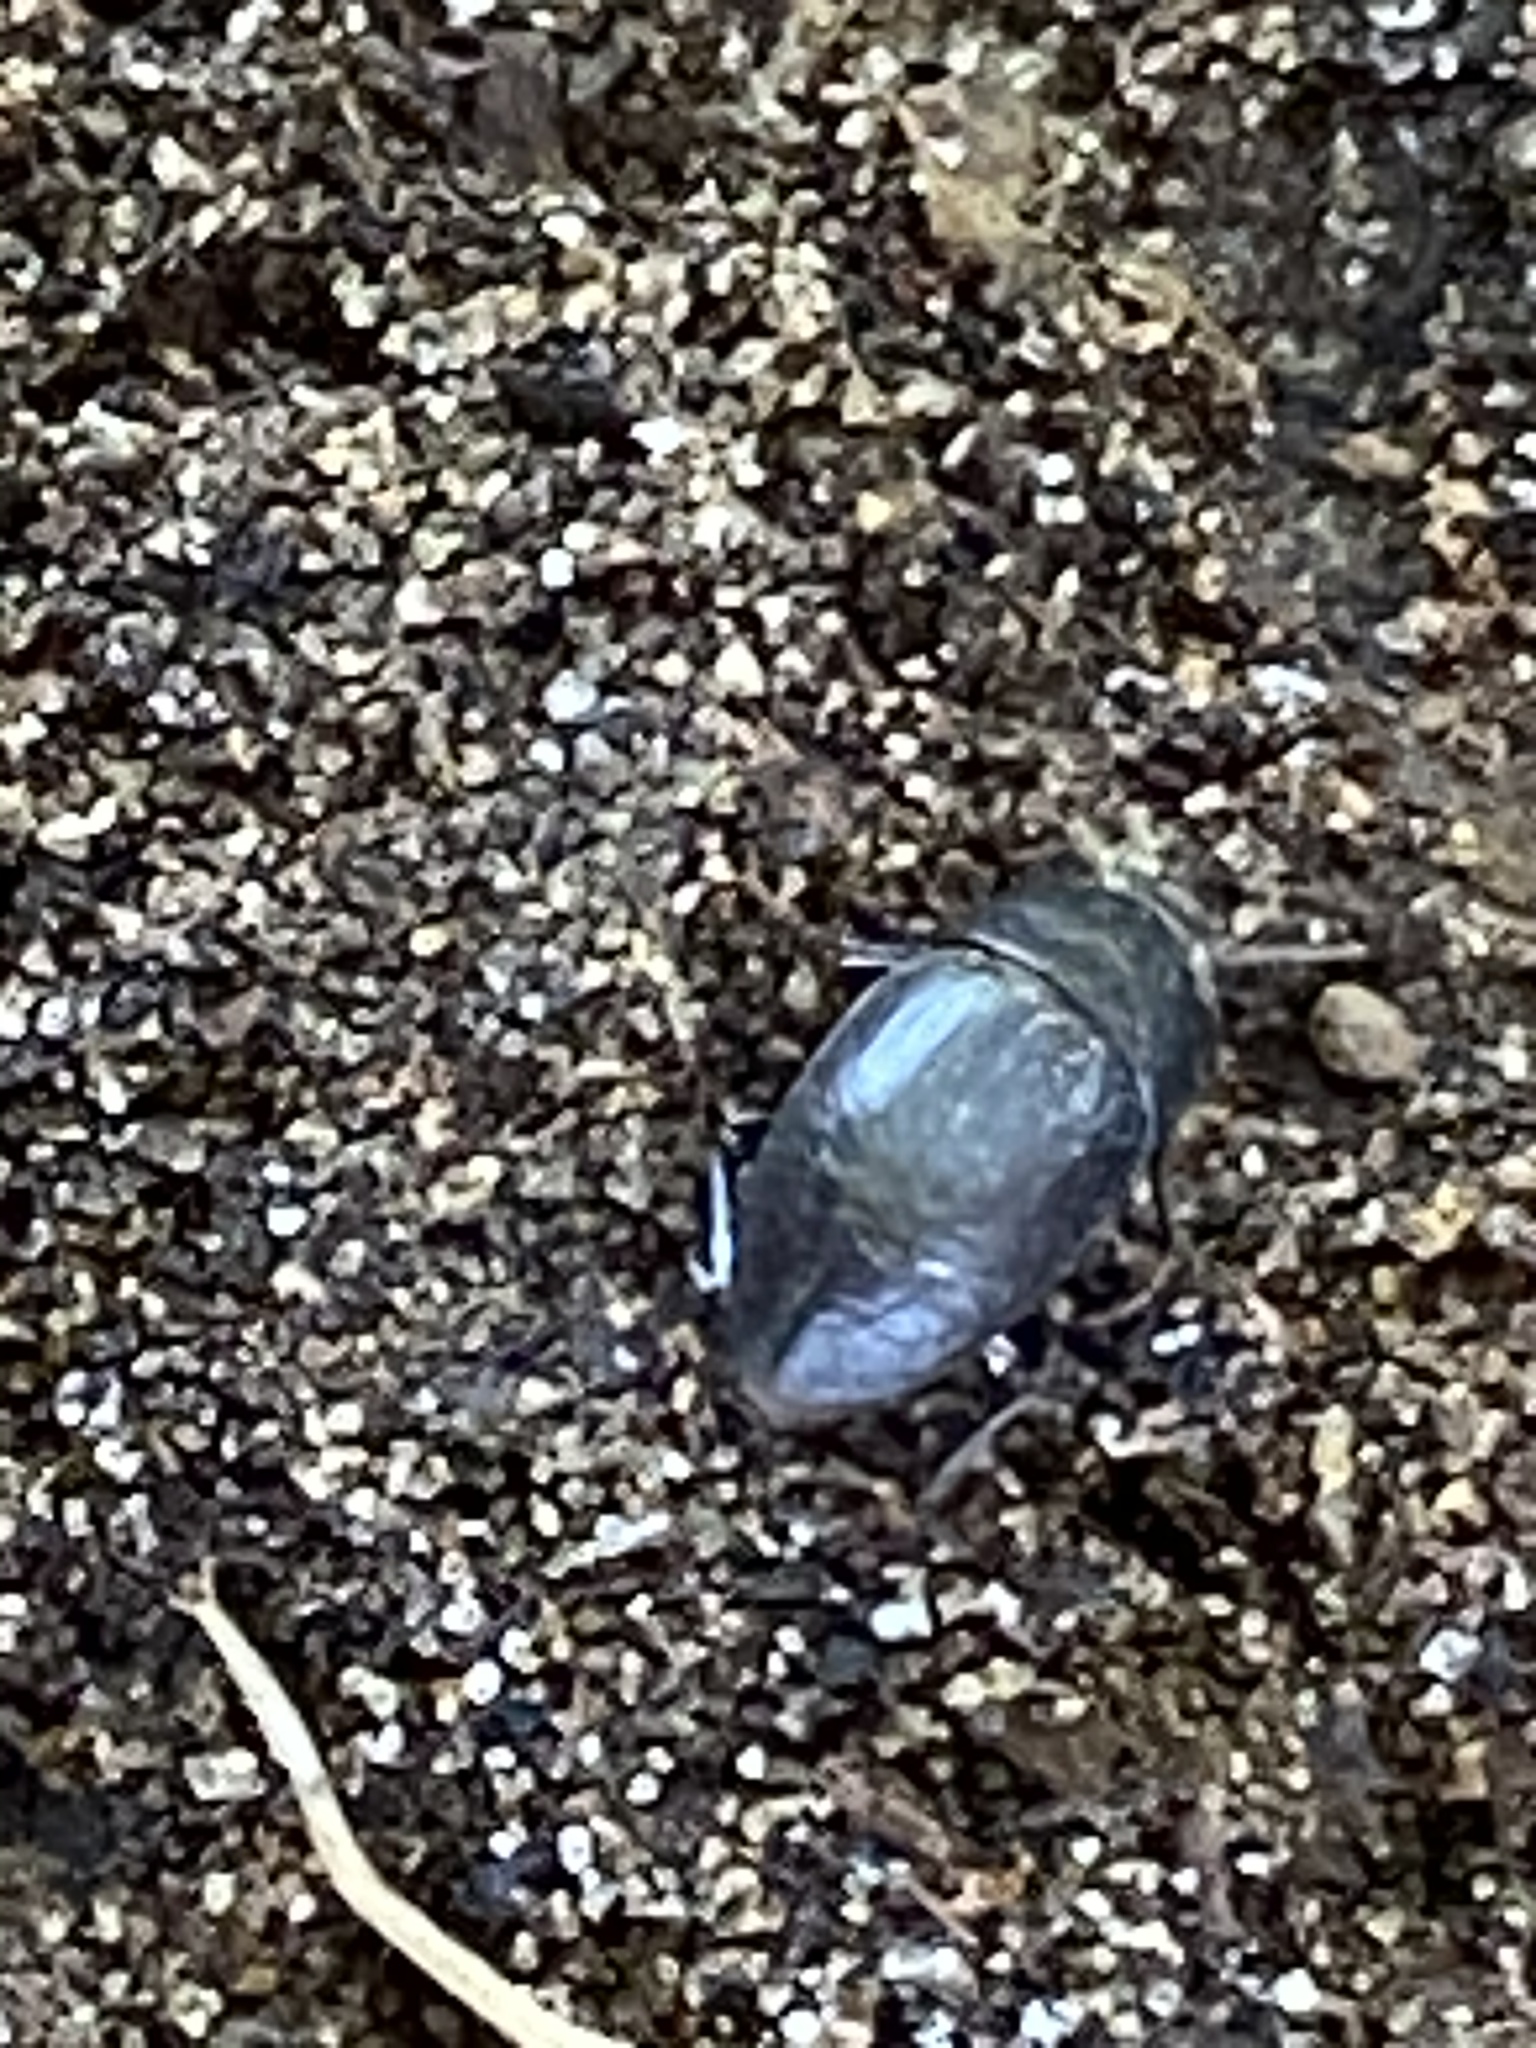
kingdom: Animalia
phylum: Arthropoda
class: Insecta
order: Coleoptera
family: Tenebrionidae
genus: Coniontis
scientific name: Coniontis
